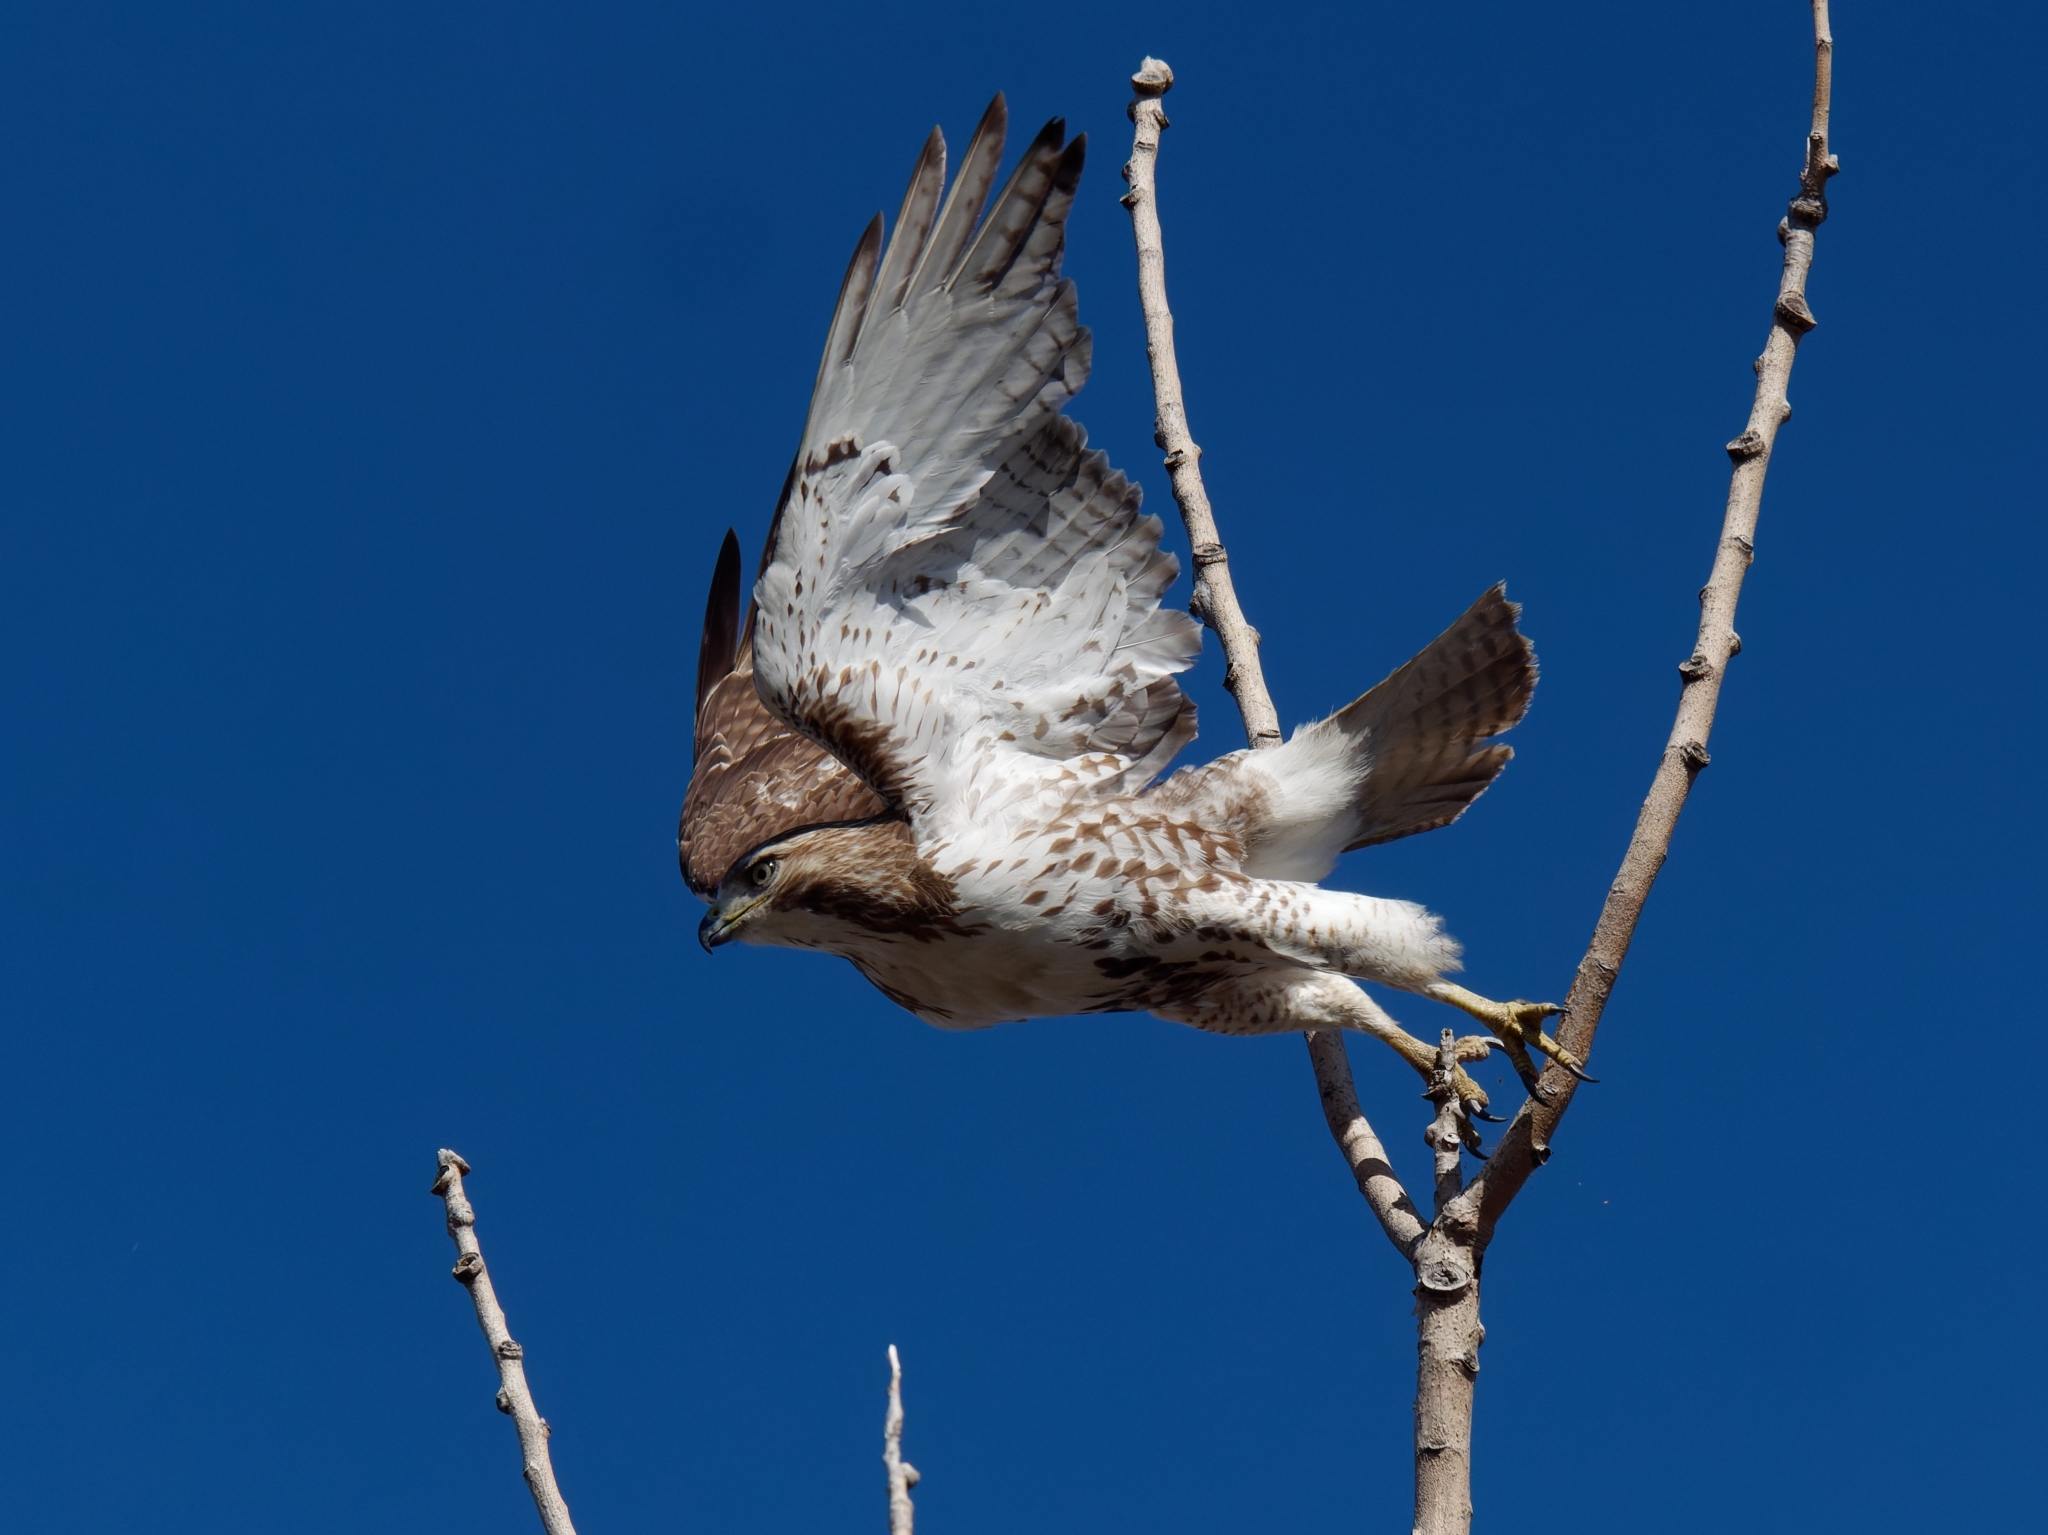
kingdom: Animalia
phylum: Chordata
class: Aves
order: Accipitriformes
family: Accipitridae
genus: Buteo
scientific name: Buteo jamaicensis
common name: Red-tailed hawk
